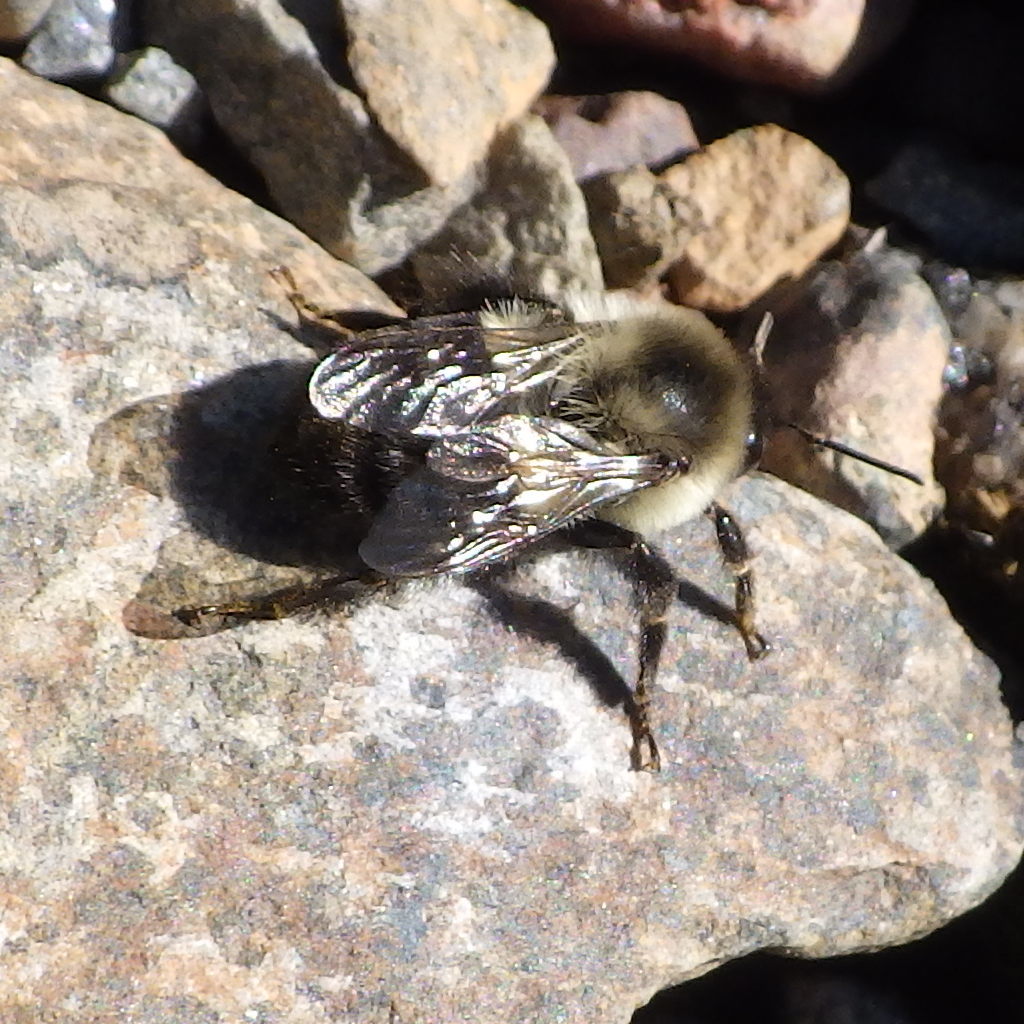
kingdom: Animalia
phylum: Arthropoda
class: Insecta
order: Hymenoptera
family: Apidae
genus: Bombus
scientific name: Bombus impatiens
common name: Common eastern bumble bee
